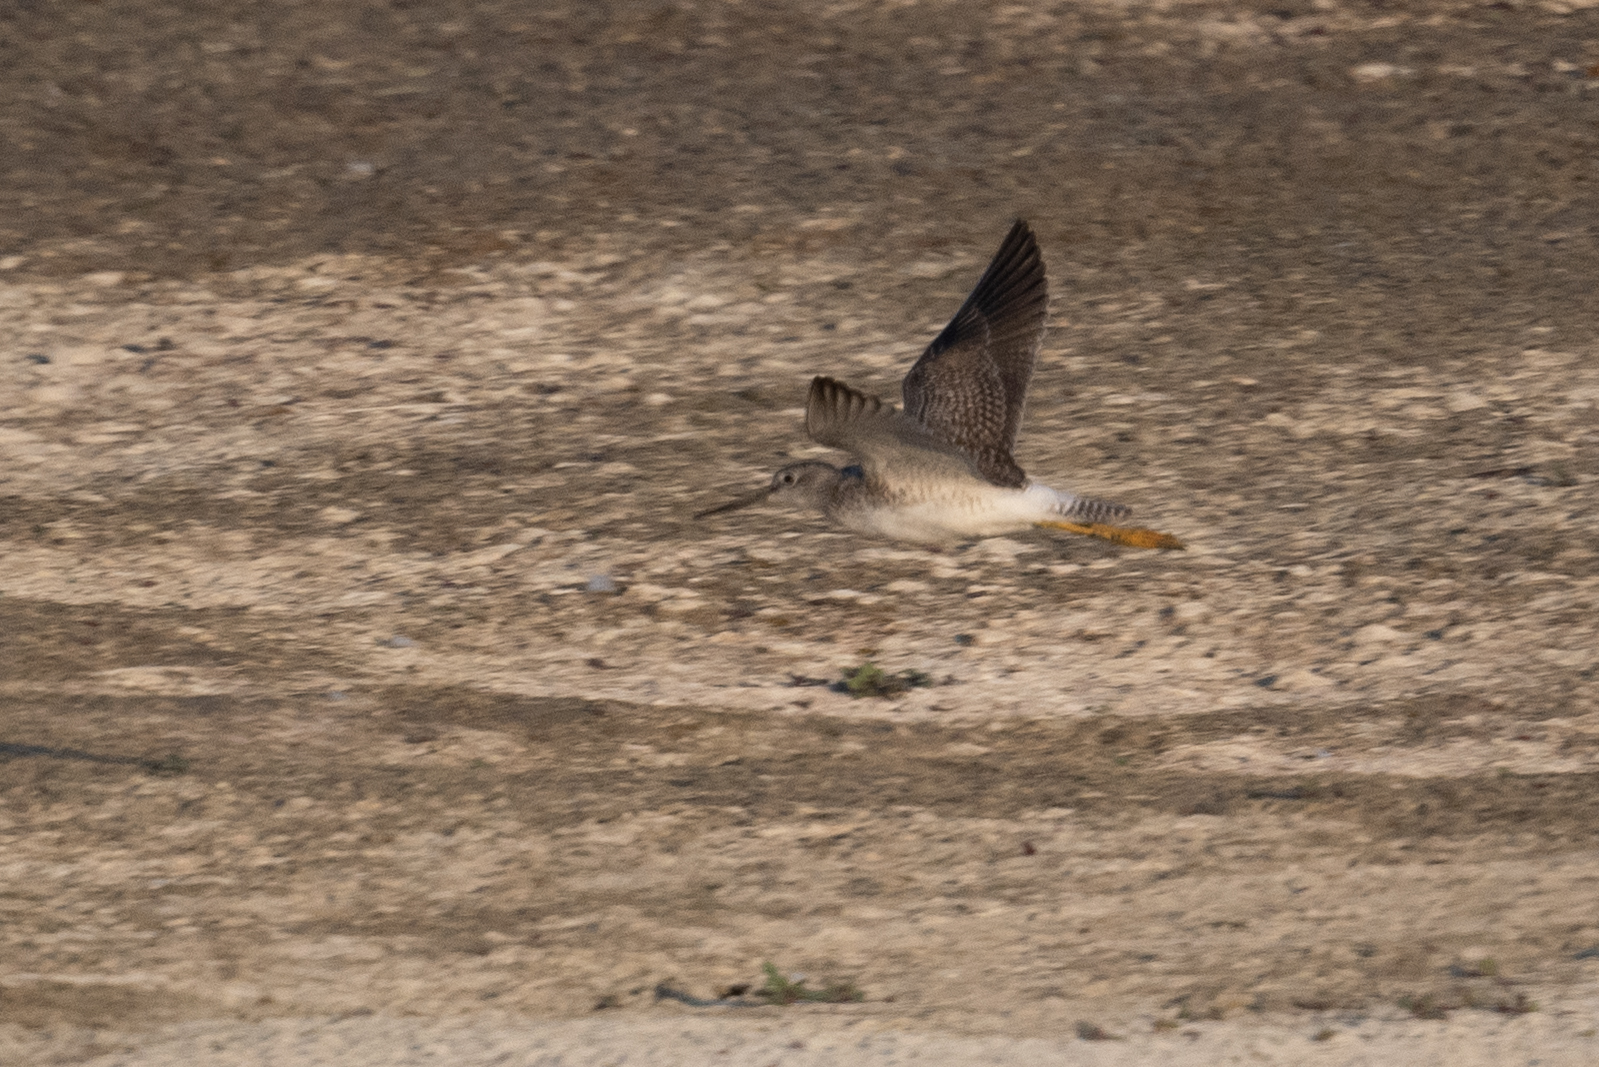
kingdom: Animalia
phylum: Chordata
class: Aves
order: Charadriiformes
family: Scolopacidae
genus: Tringa
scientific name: Tringa melanoleuca
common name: Greater yellowlegs
